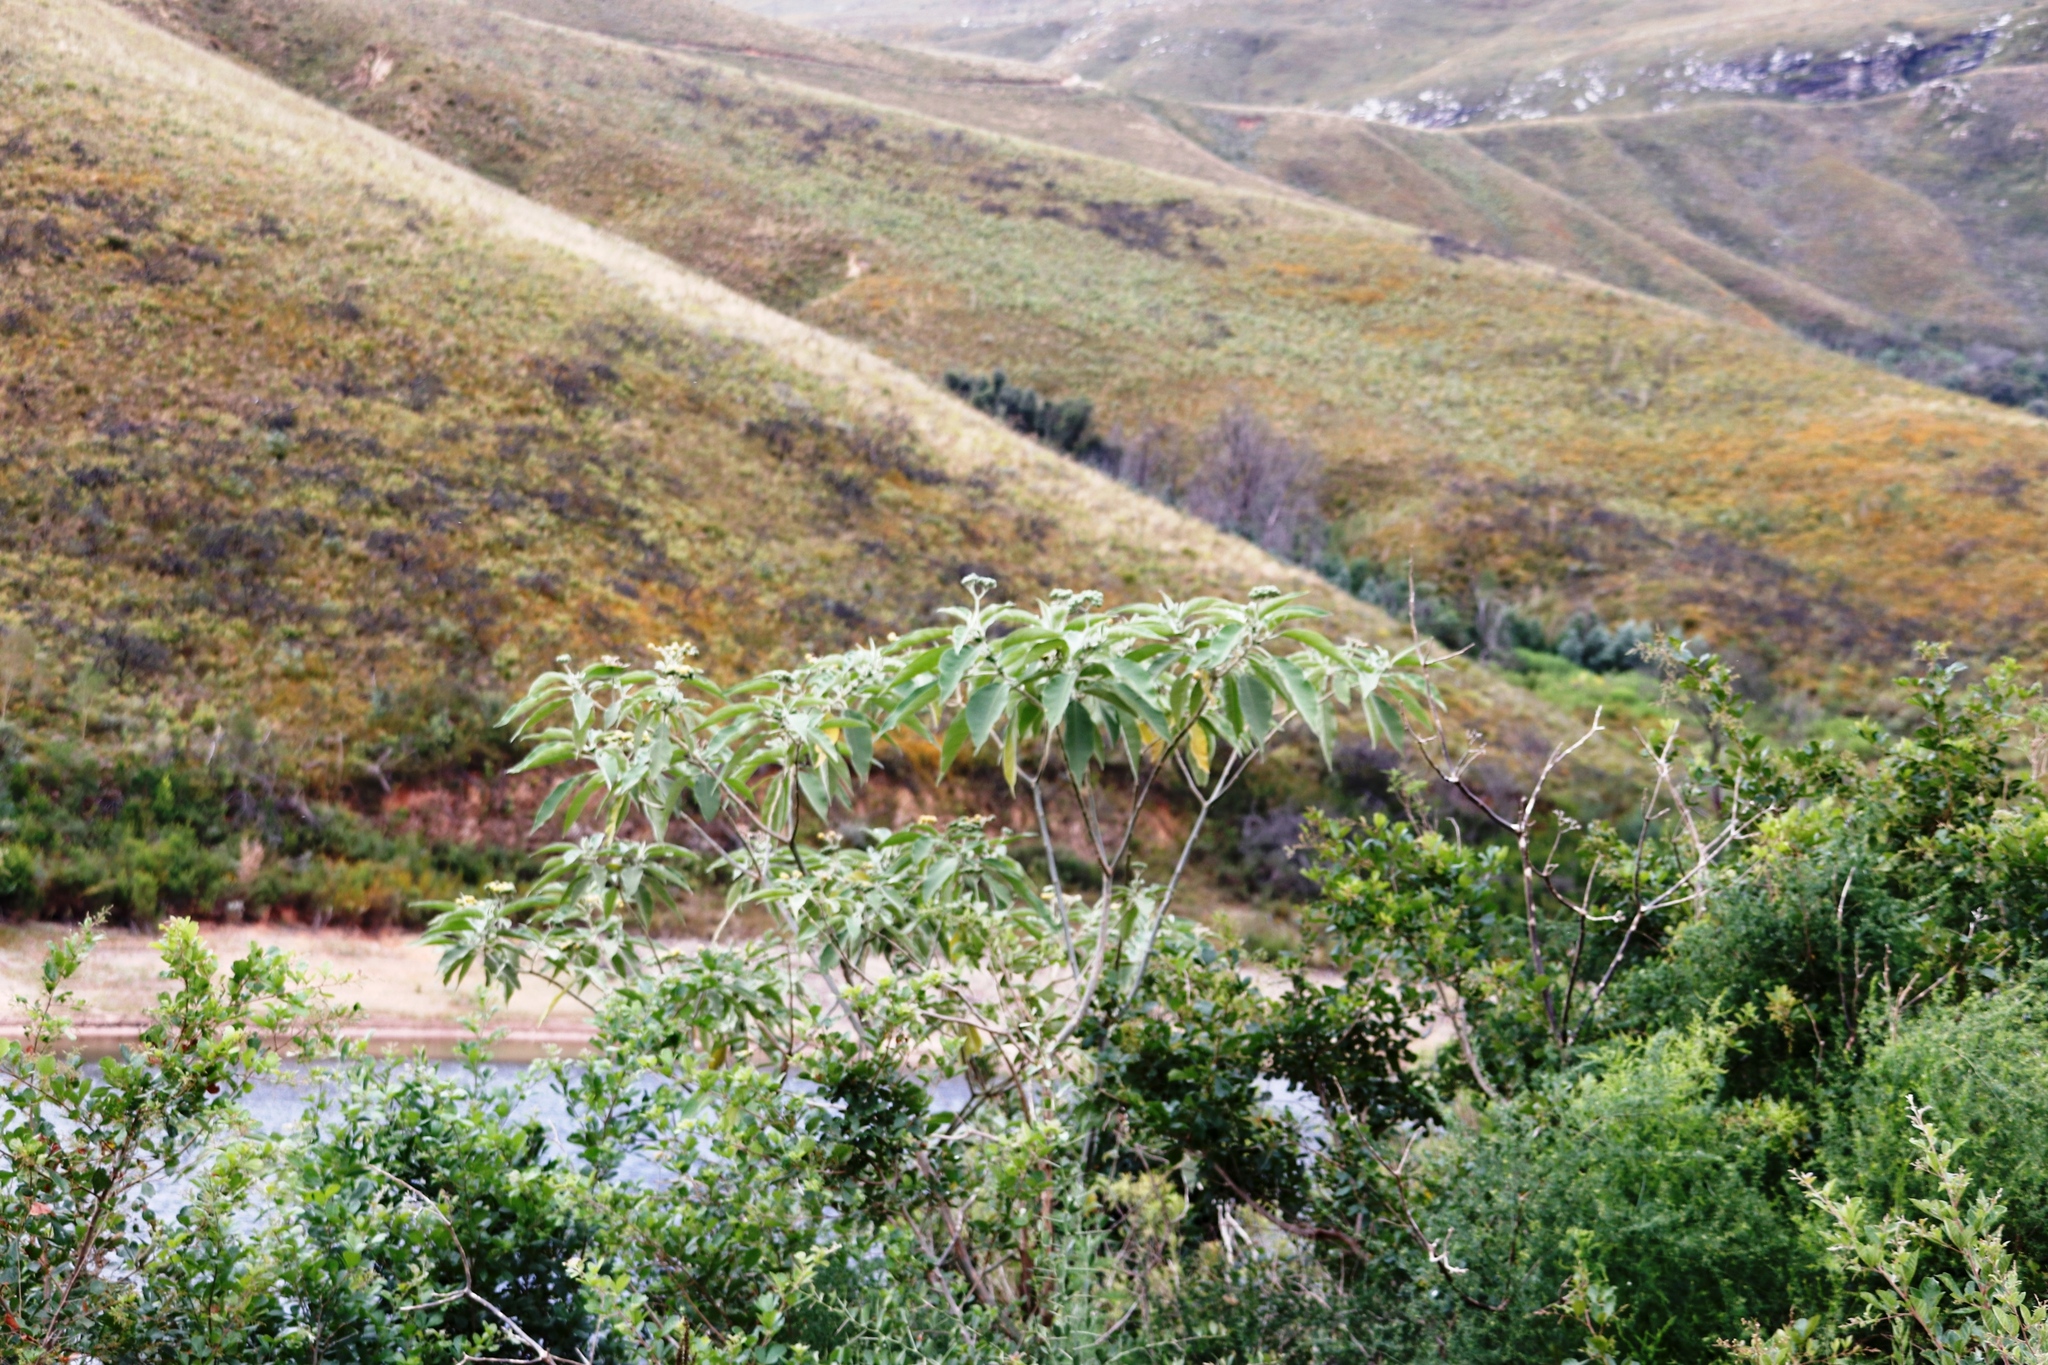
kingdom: Plantae
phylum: Tracheophyta
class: Magnoliopsida
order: Solanales
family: Solanaceae
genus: Solanum
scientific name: Solanum mauritianum
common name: Earleaf nightshade
